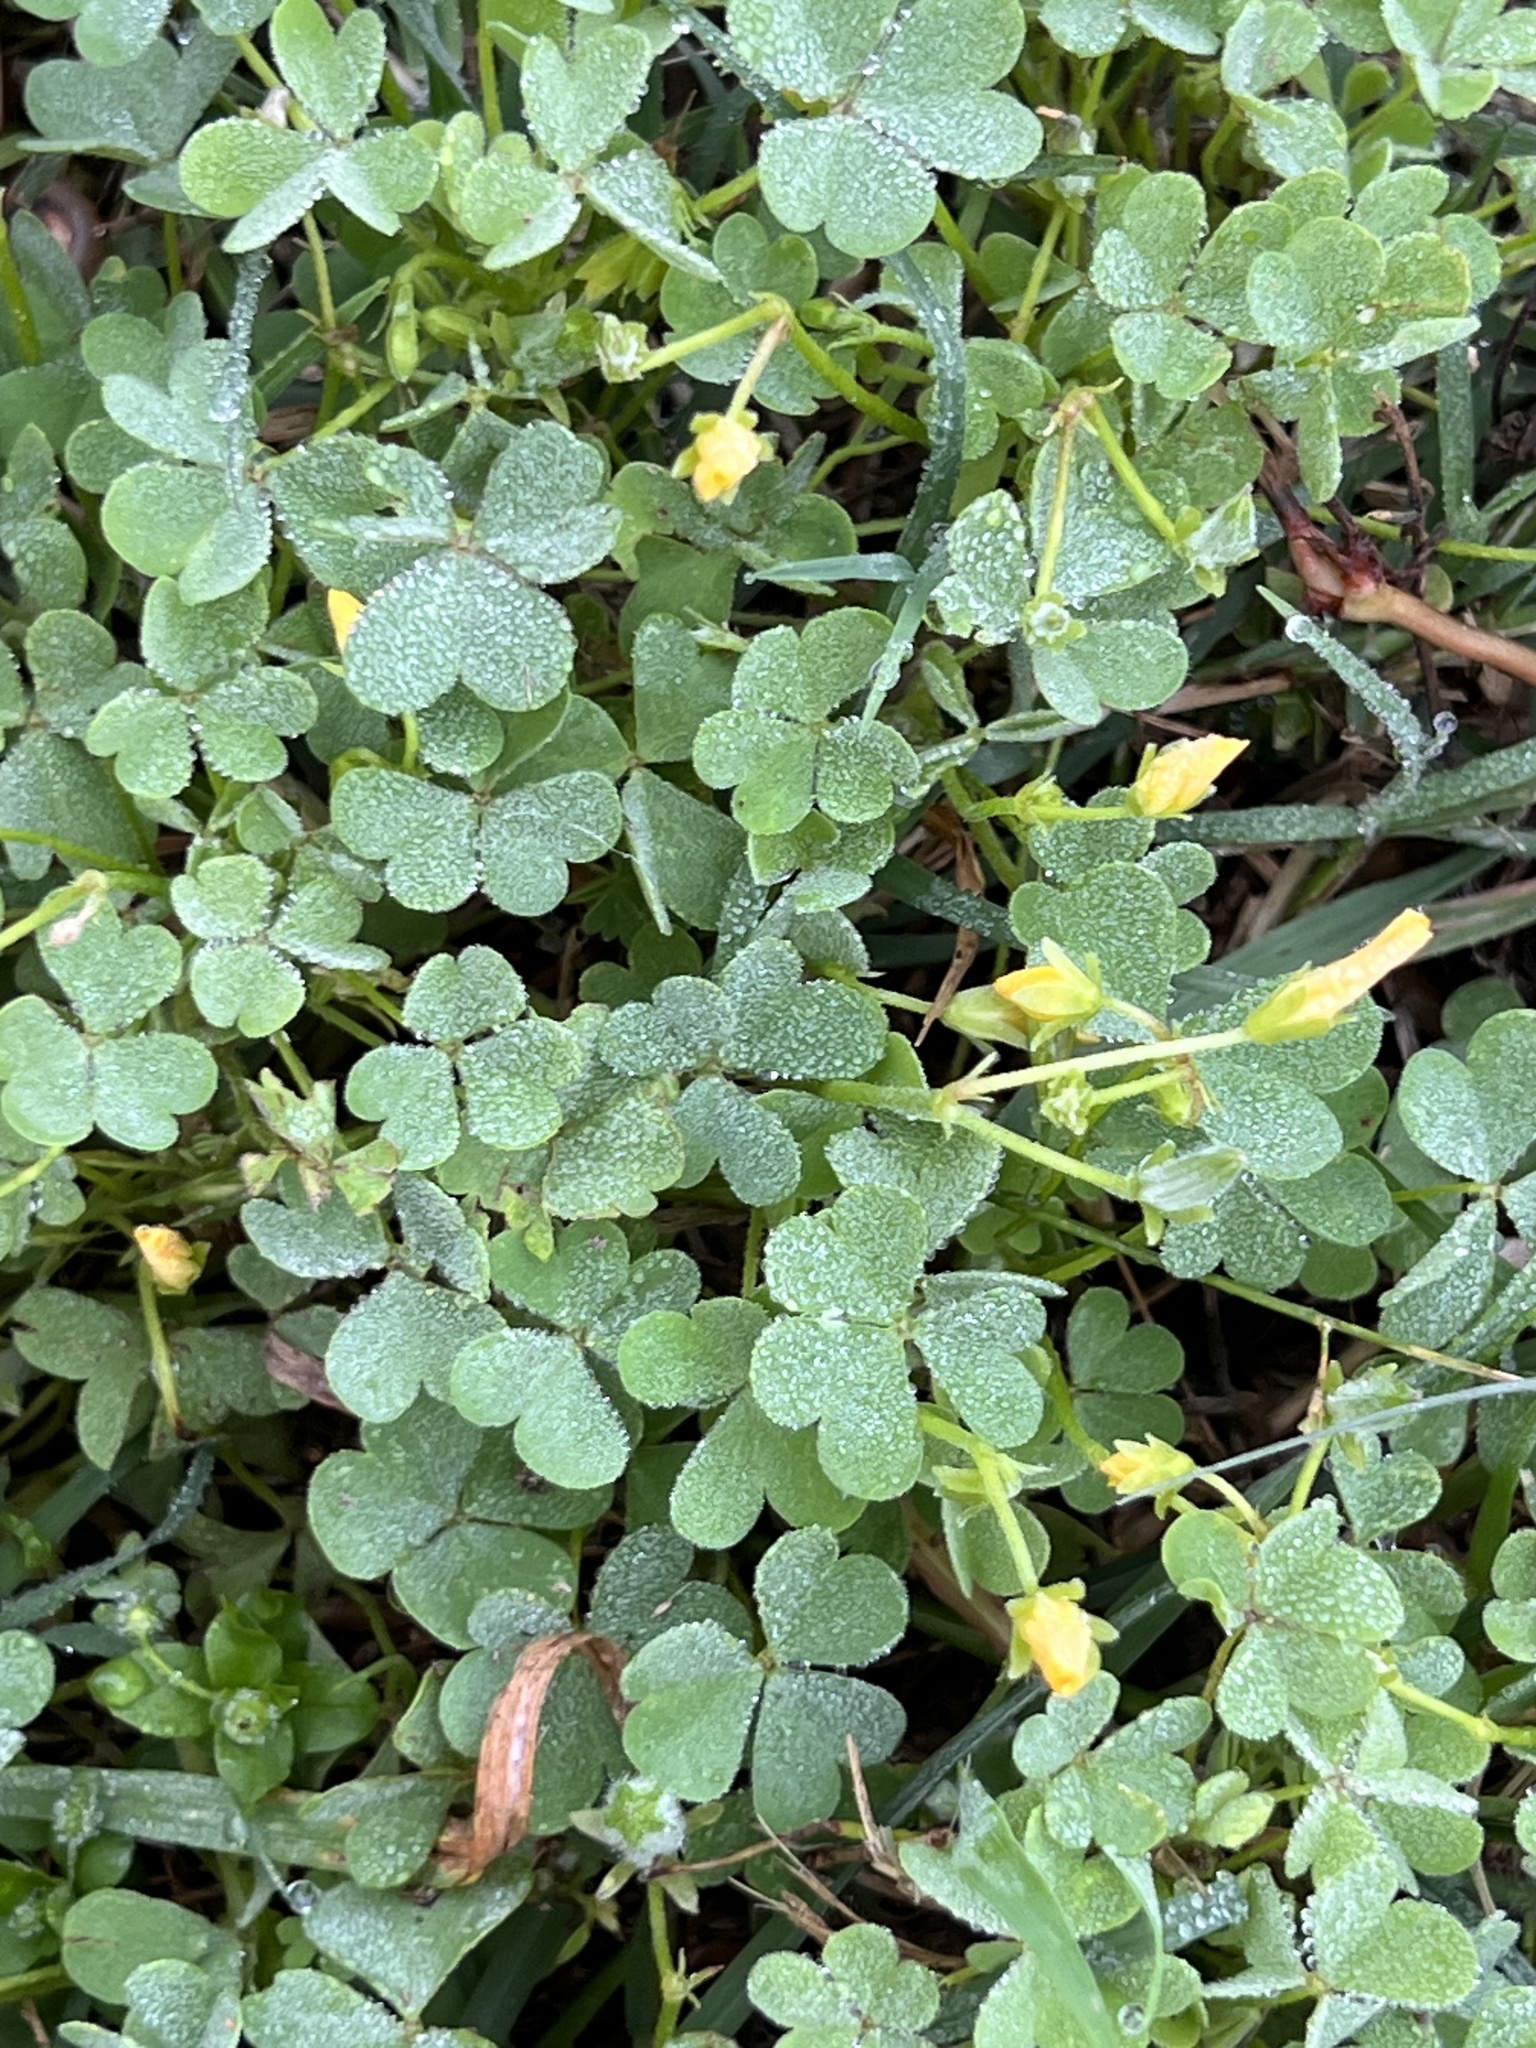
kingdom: Plantae
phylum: Tracheophyta
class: Magnoliopsida
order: Oxalidales
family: Oxalidaceae
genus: Oxalis
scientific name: Oxalis dillenii
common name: Sussex yellow-sorrel
